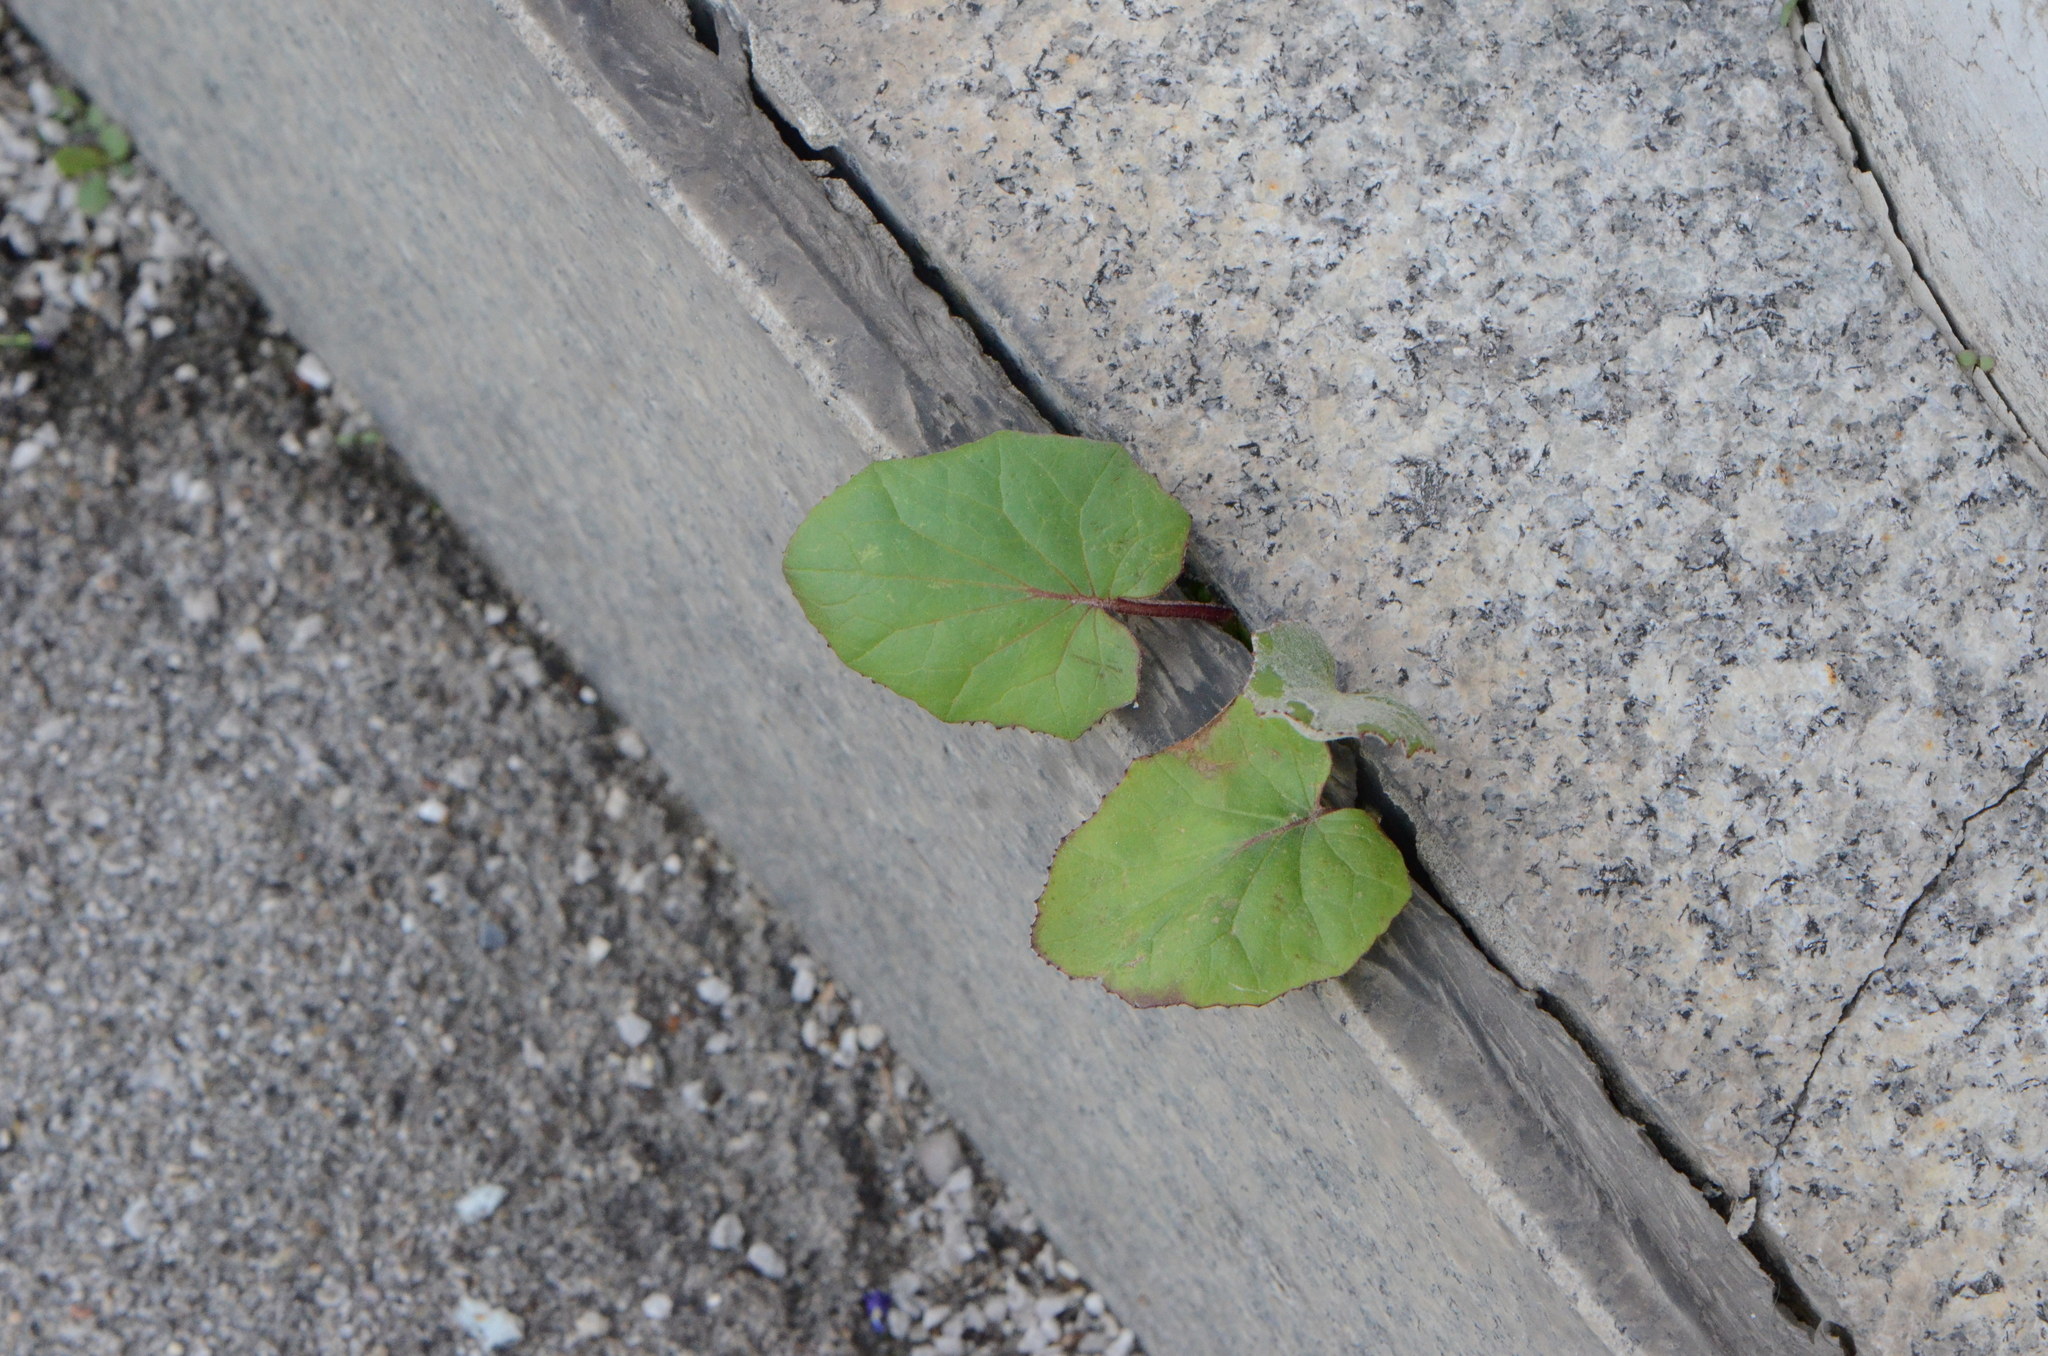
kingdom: Plantae
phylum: Tracheophyta
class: Magnoliopsida
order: Asterales
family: Asteraceae
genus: Tussilago
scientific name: Tussilago farfara
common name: Coltsfoot
